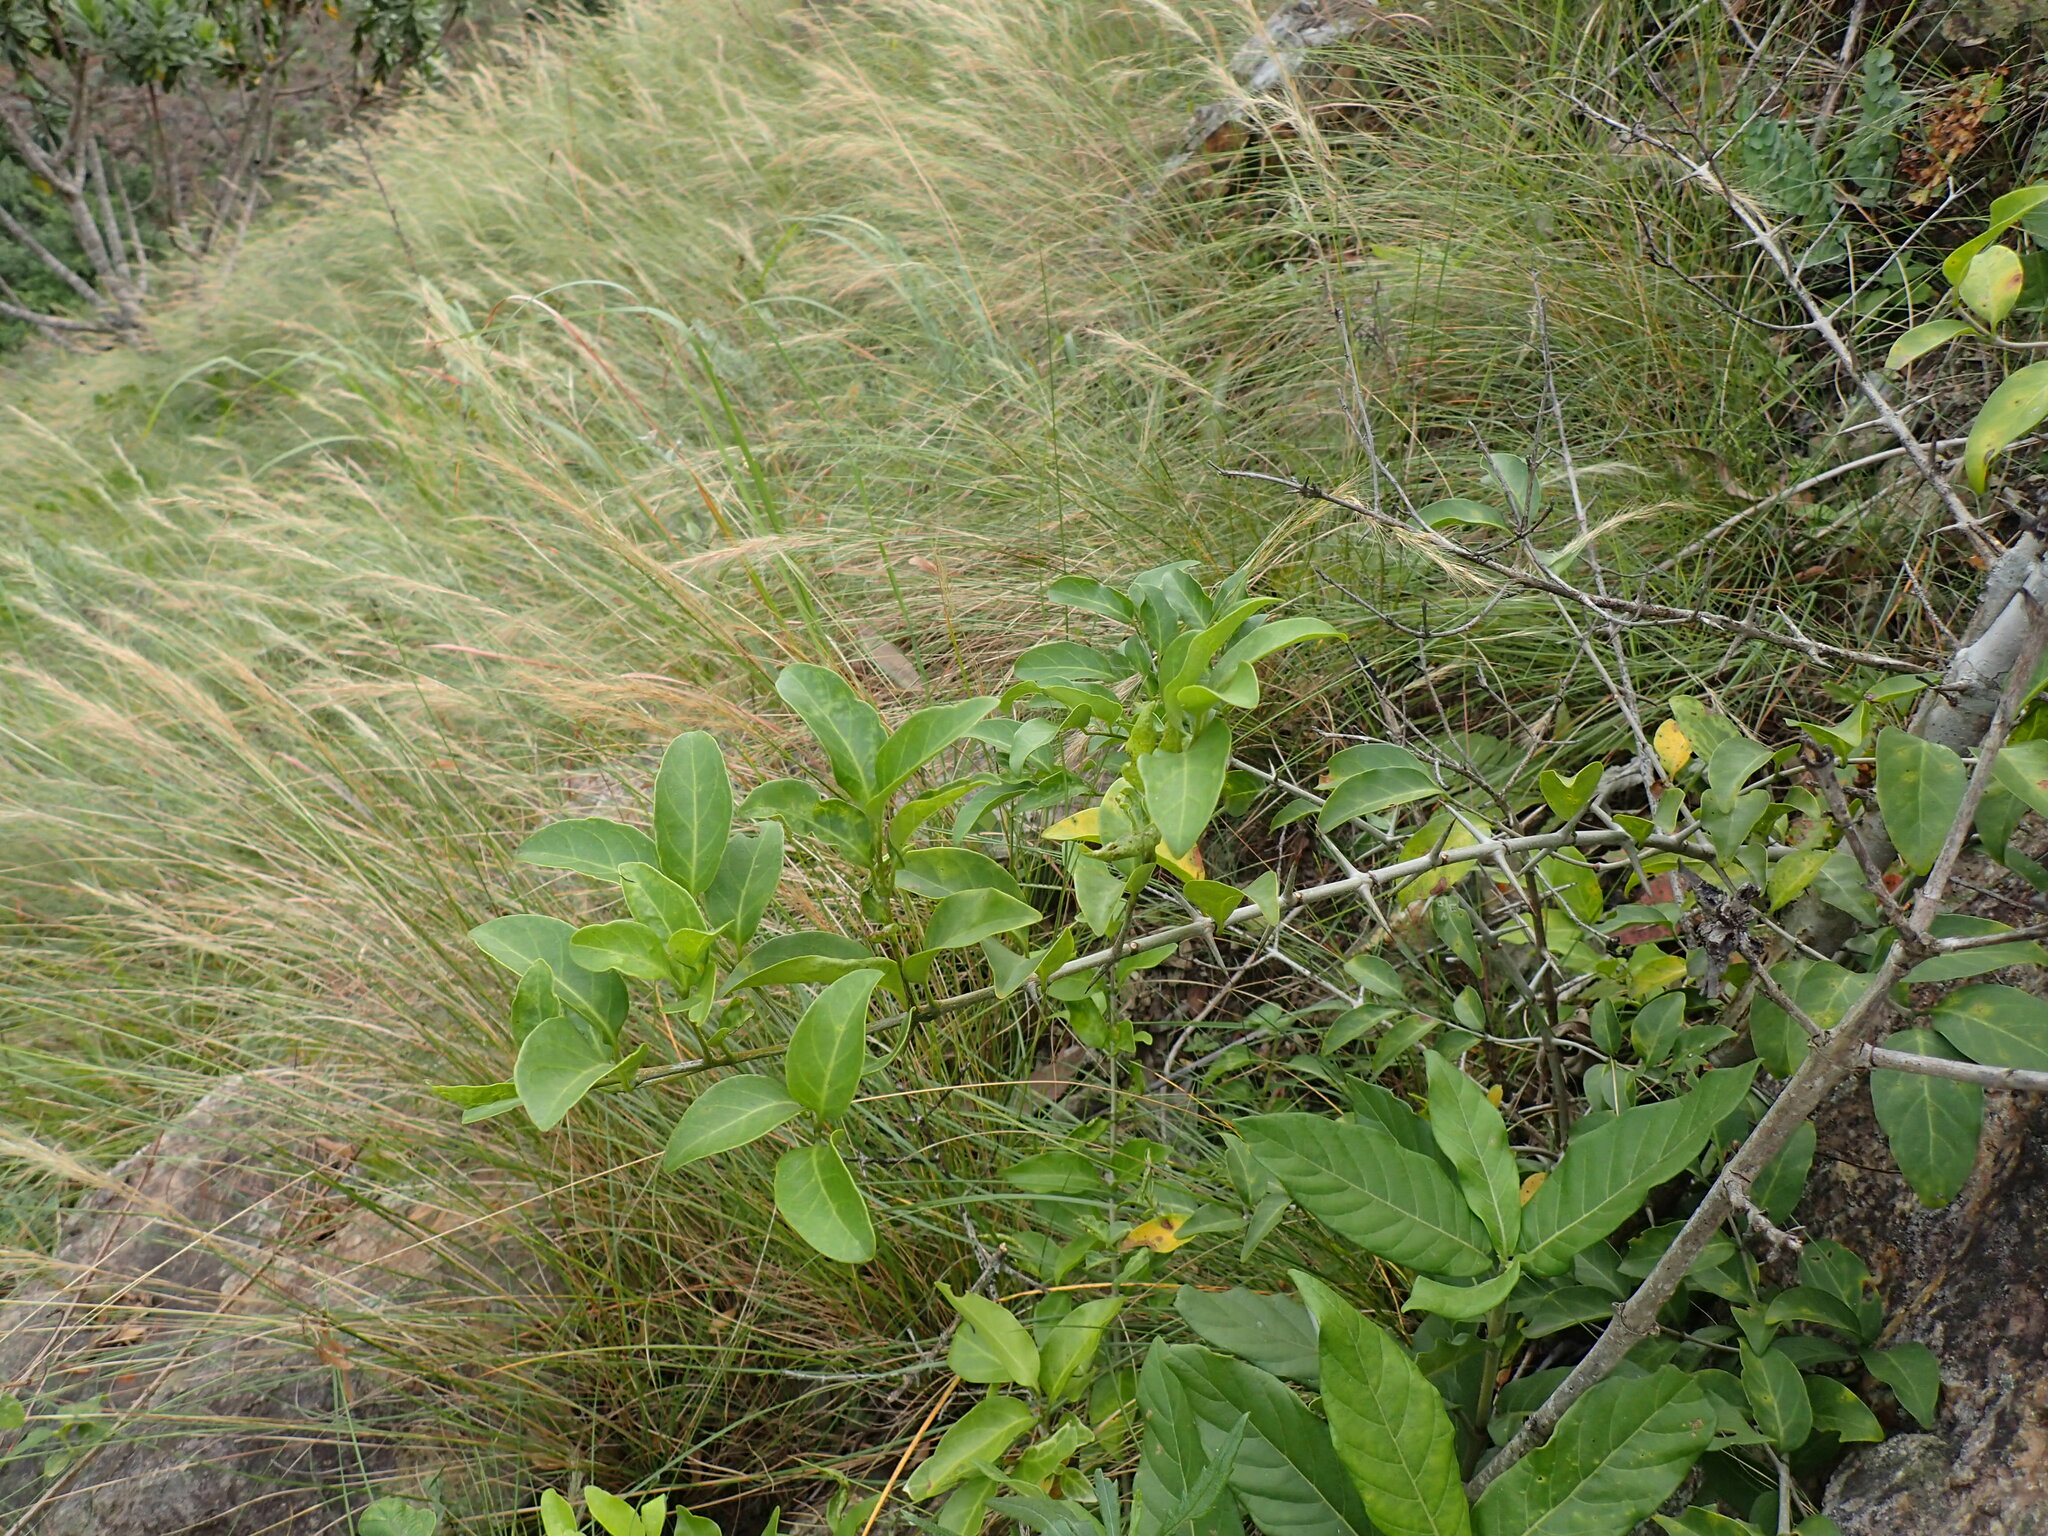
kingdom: Plantae
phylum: Tracheophyta
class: Magnoliopsida
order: Gentianales
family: Rubiaceae
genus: Canthium
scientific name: Canthium inerme
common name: Unarmed turkey-berry
